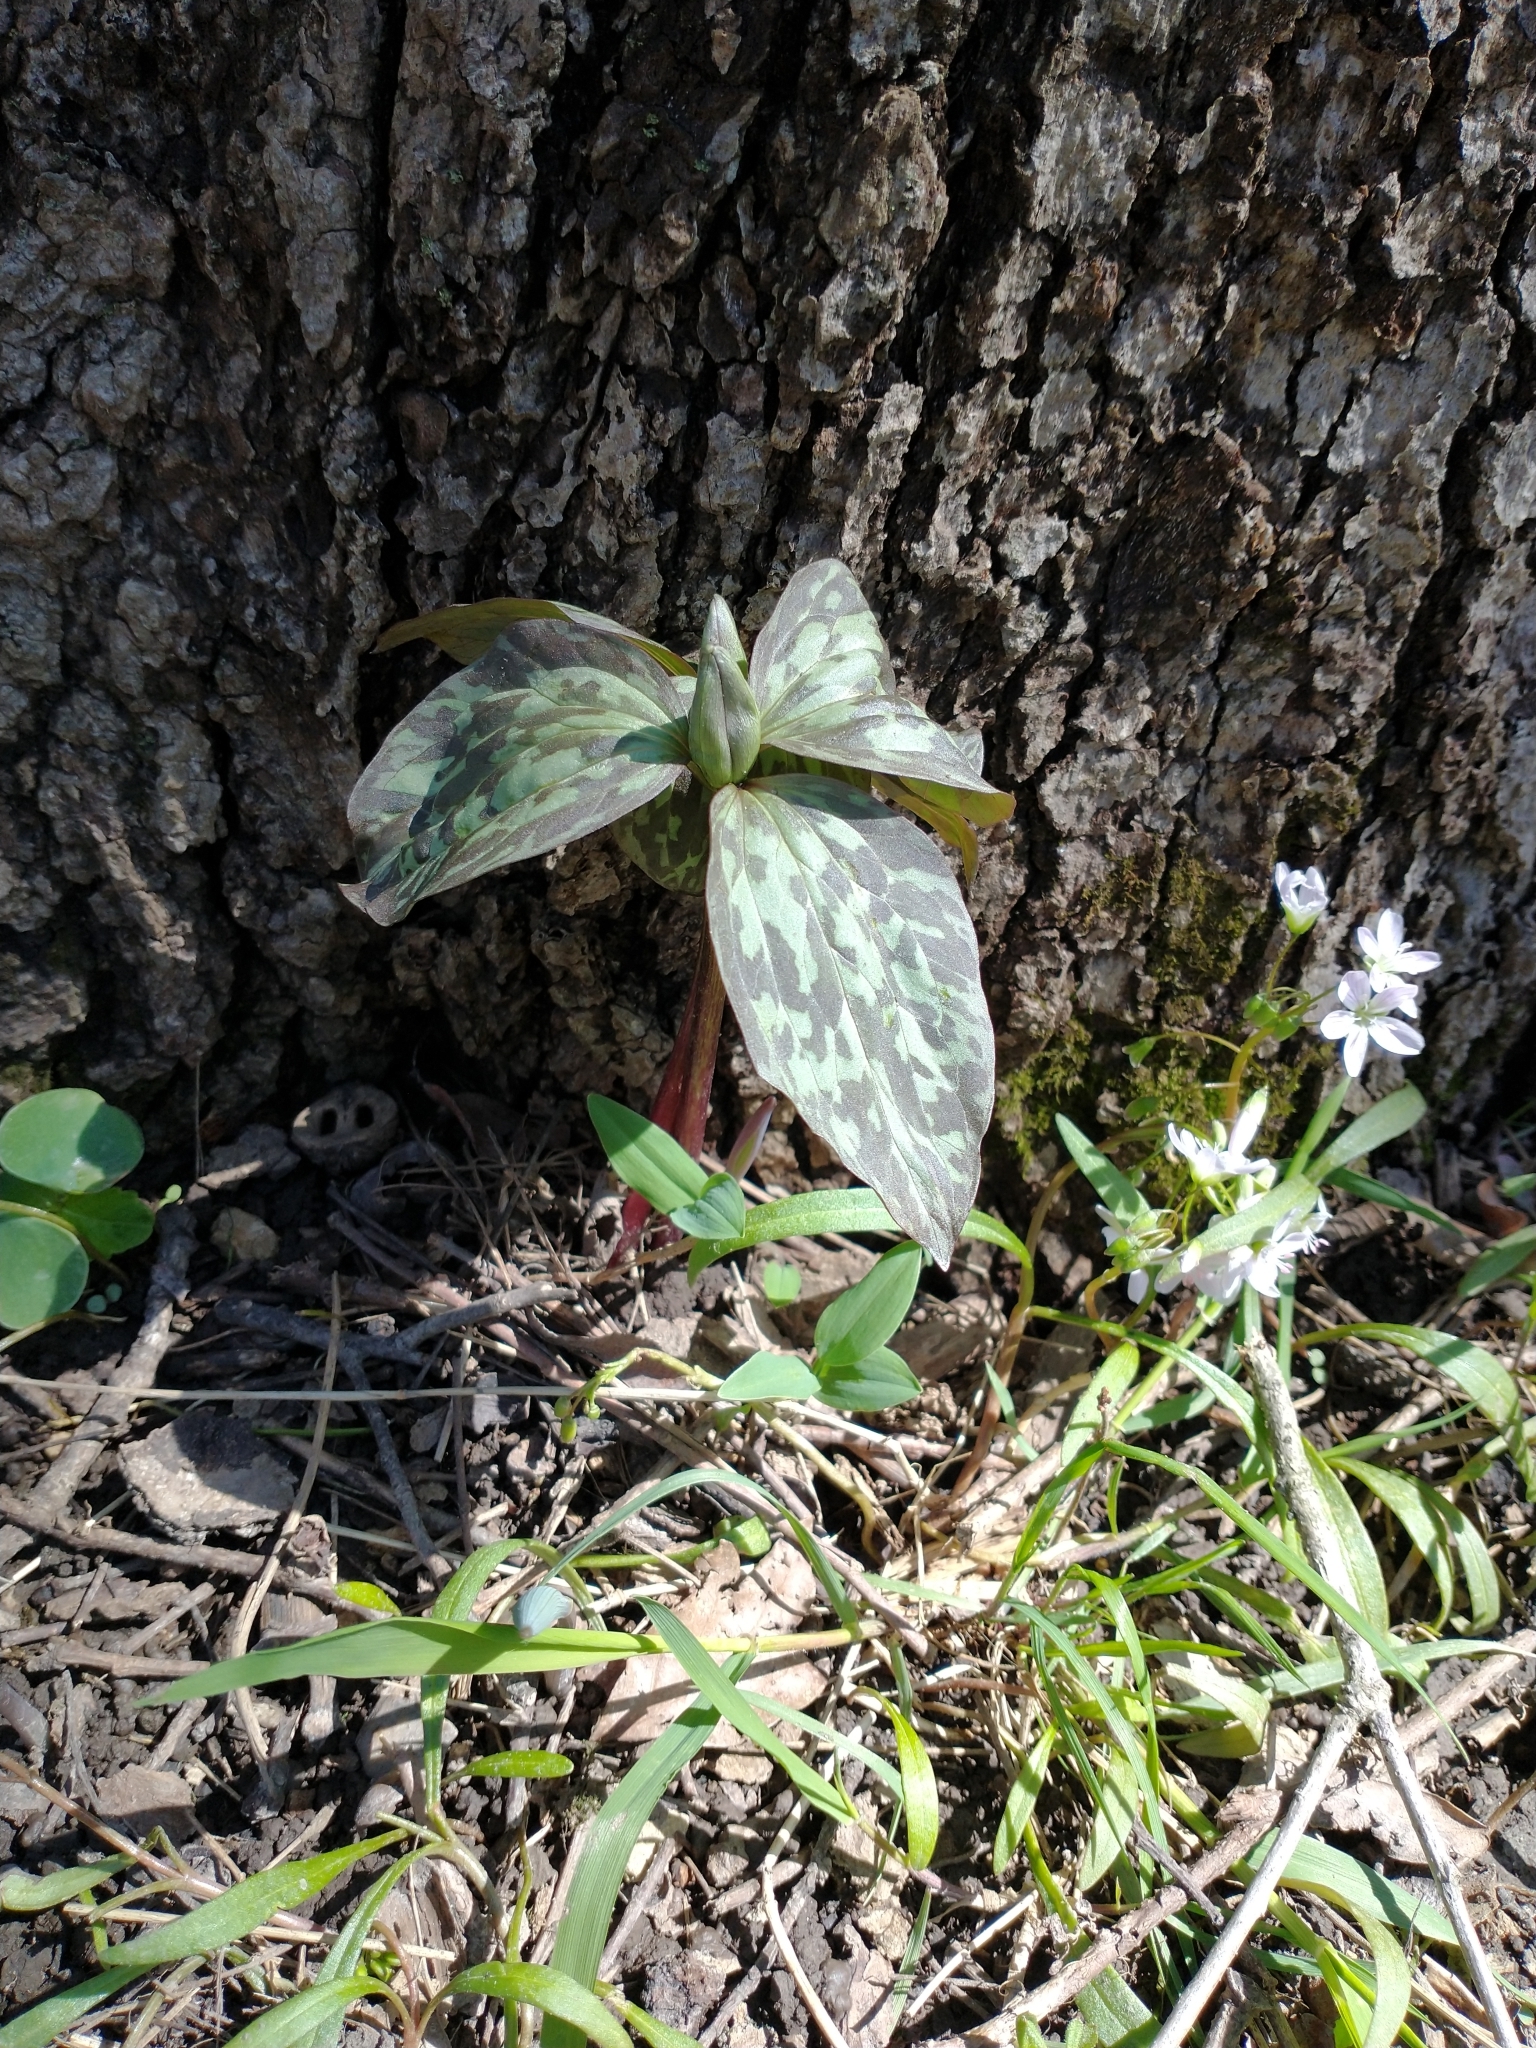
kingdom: Plantae
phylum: Tracheophyta
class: Liliopsida
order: Liliales
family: Melanthiaceae
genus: Trillium
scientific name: Trillium recurvatum
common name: Bloody butcher
